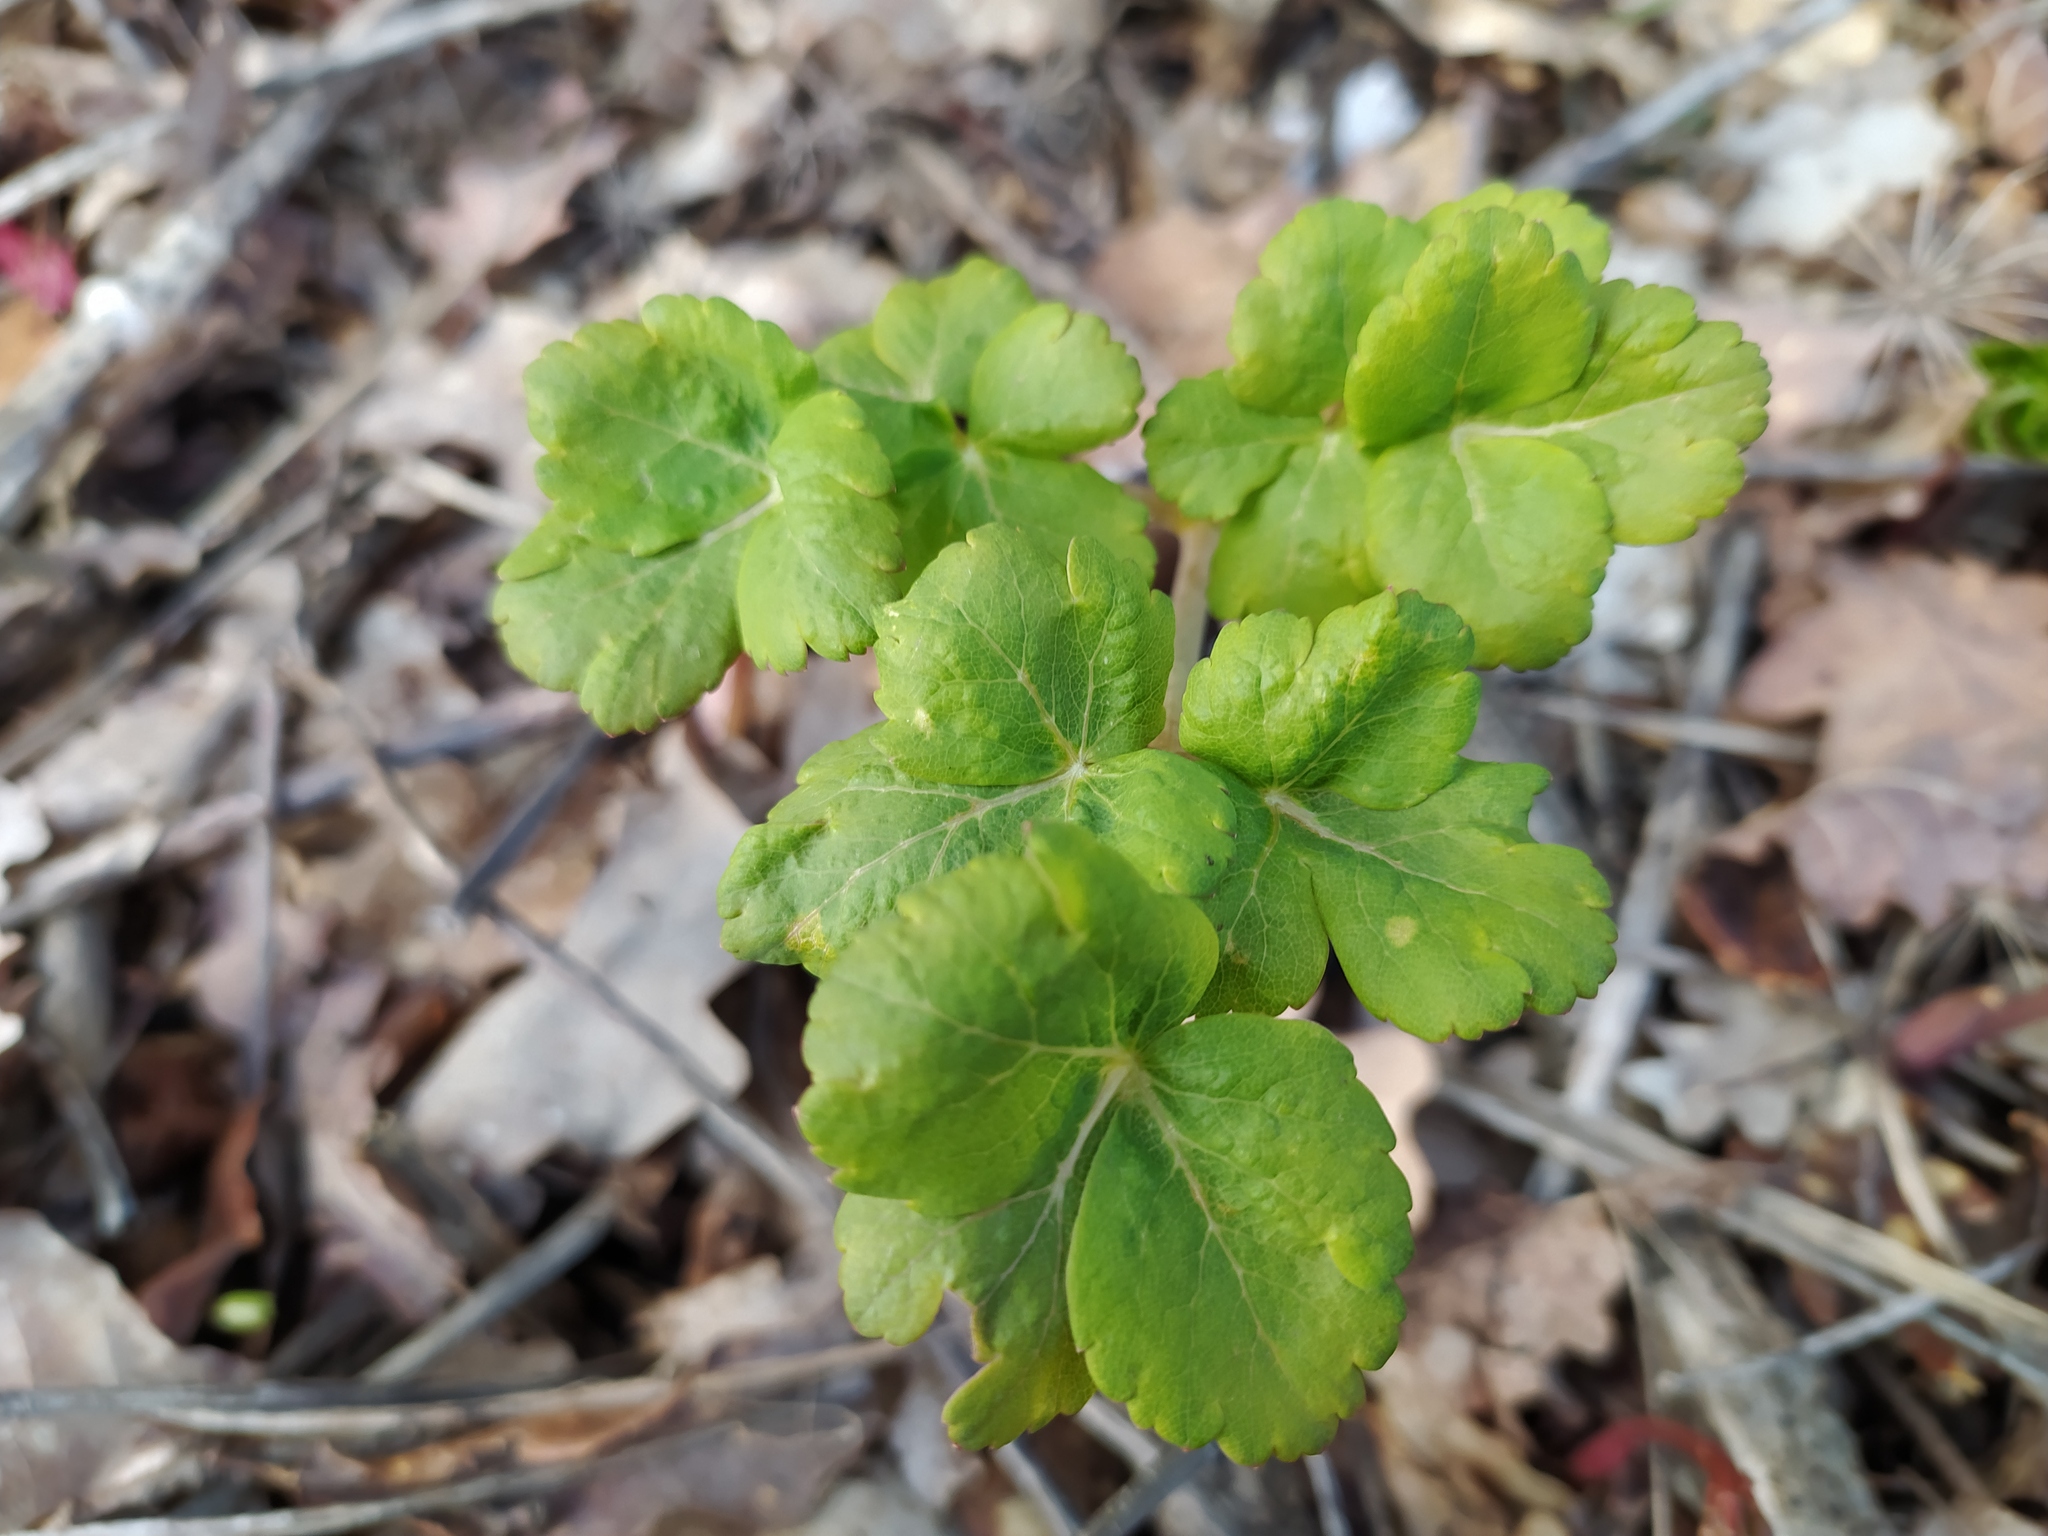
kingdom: Plantae
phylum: Tracheophyta
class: Magnoliopsida
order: Apiales
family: Apiaceae
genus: Laser
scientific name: Laser trilobum
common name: Laser
